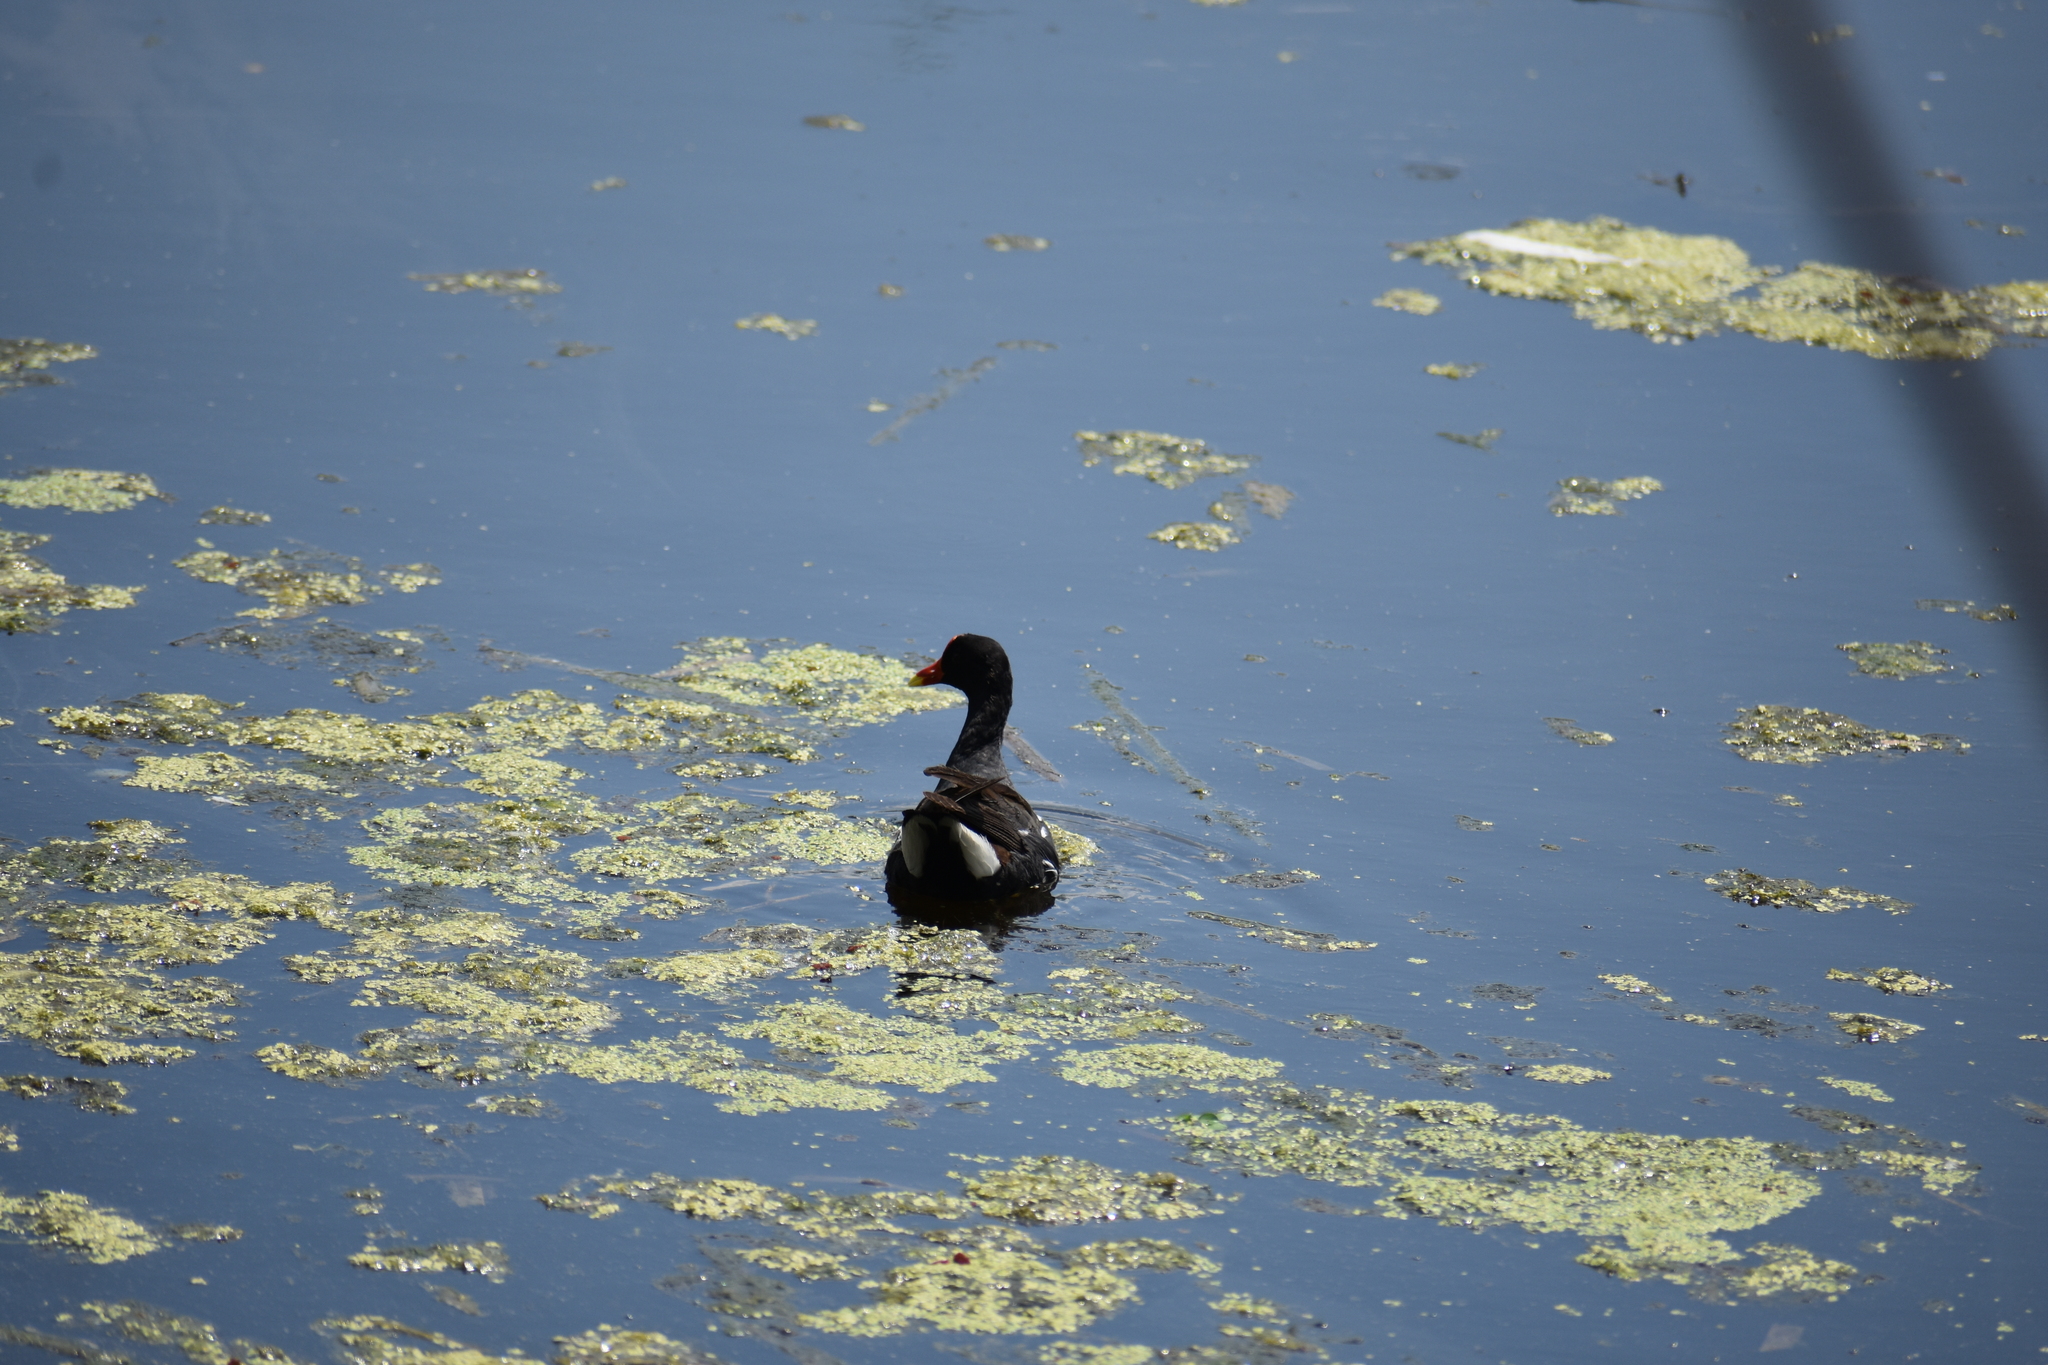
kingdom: Animalia
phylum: Chordata
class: Aves
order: Gruiformes
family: Rallidae
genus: Gallinula
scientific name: Gallinula chloropus
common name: Common moorhen
